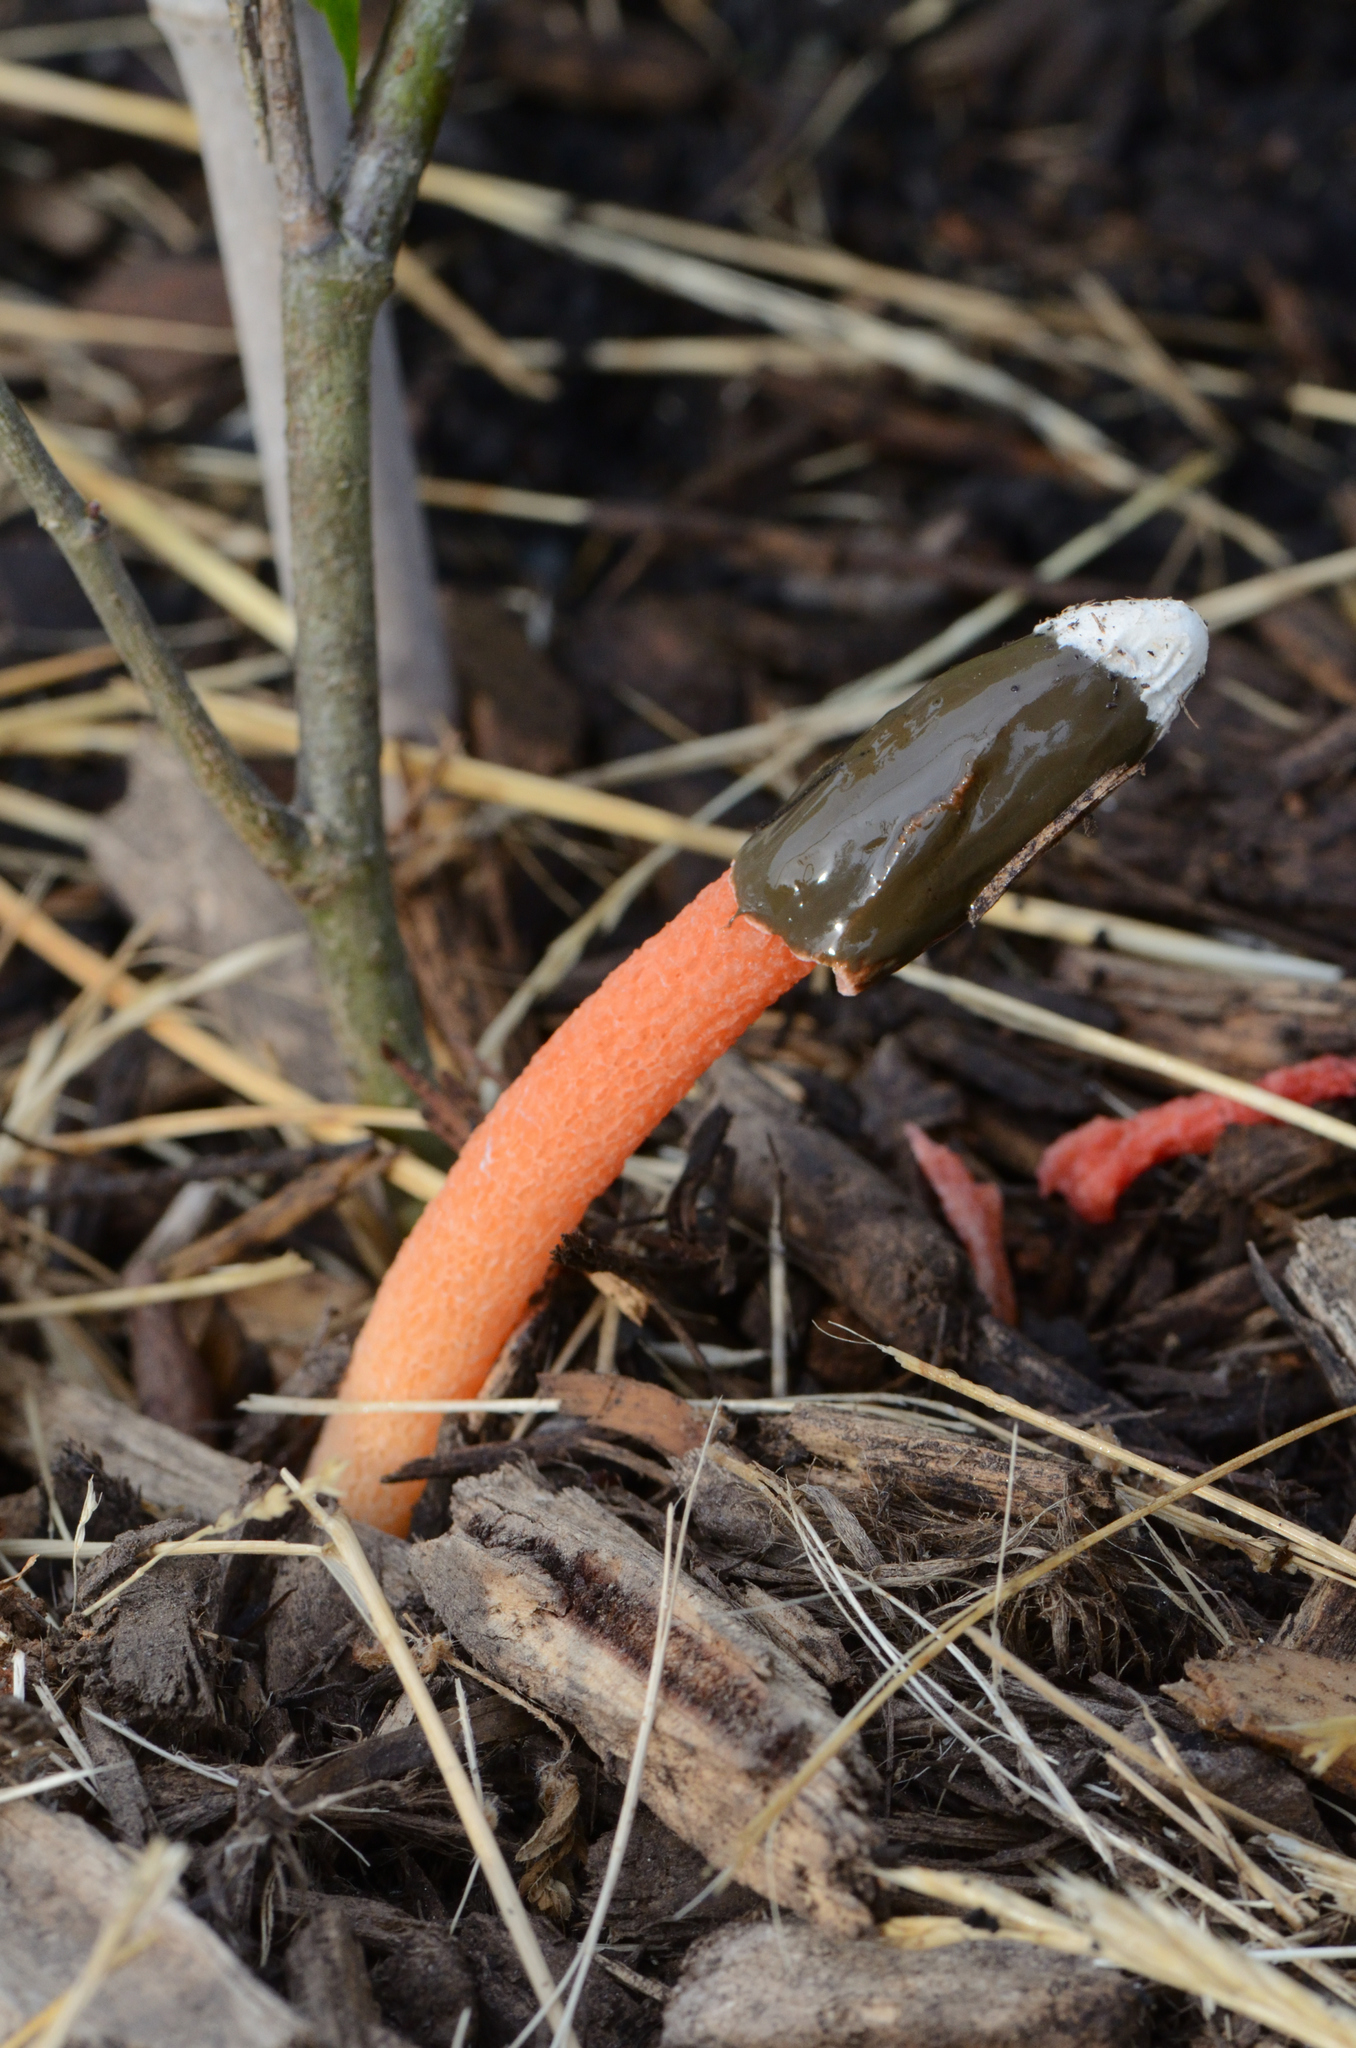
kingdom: Fungi
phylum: Basidiomycota
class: Agaricomycetes
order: Phallales
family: Phallaceae
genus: Phallus
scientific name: Phallus rugulosus
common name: Wrinkly stinkhorn
